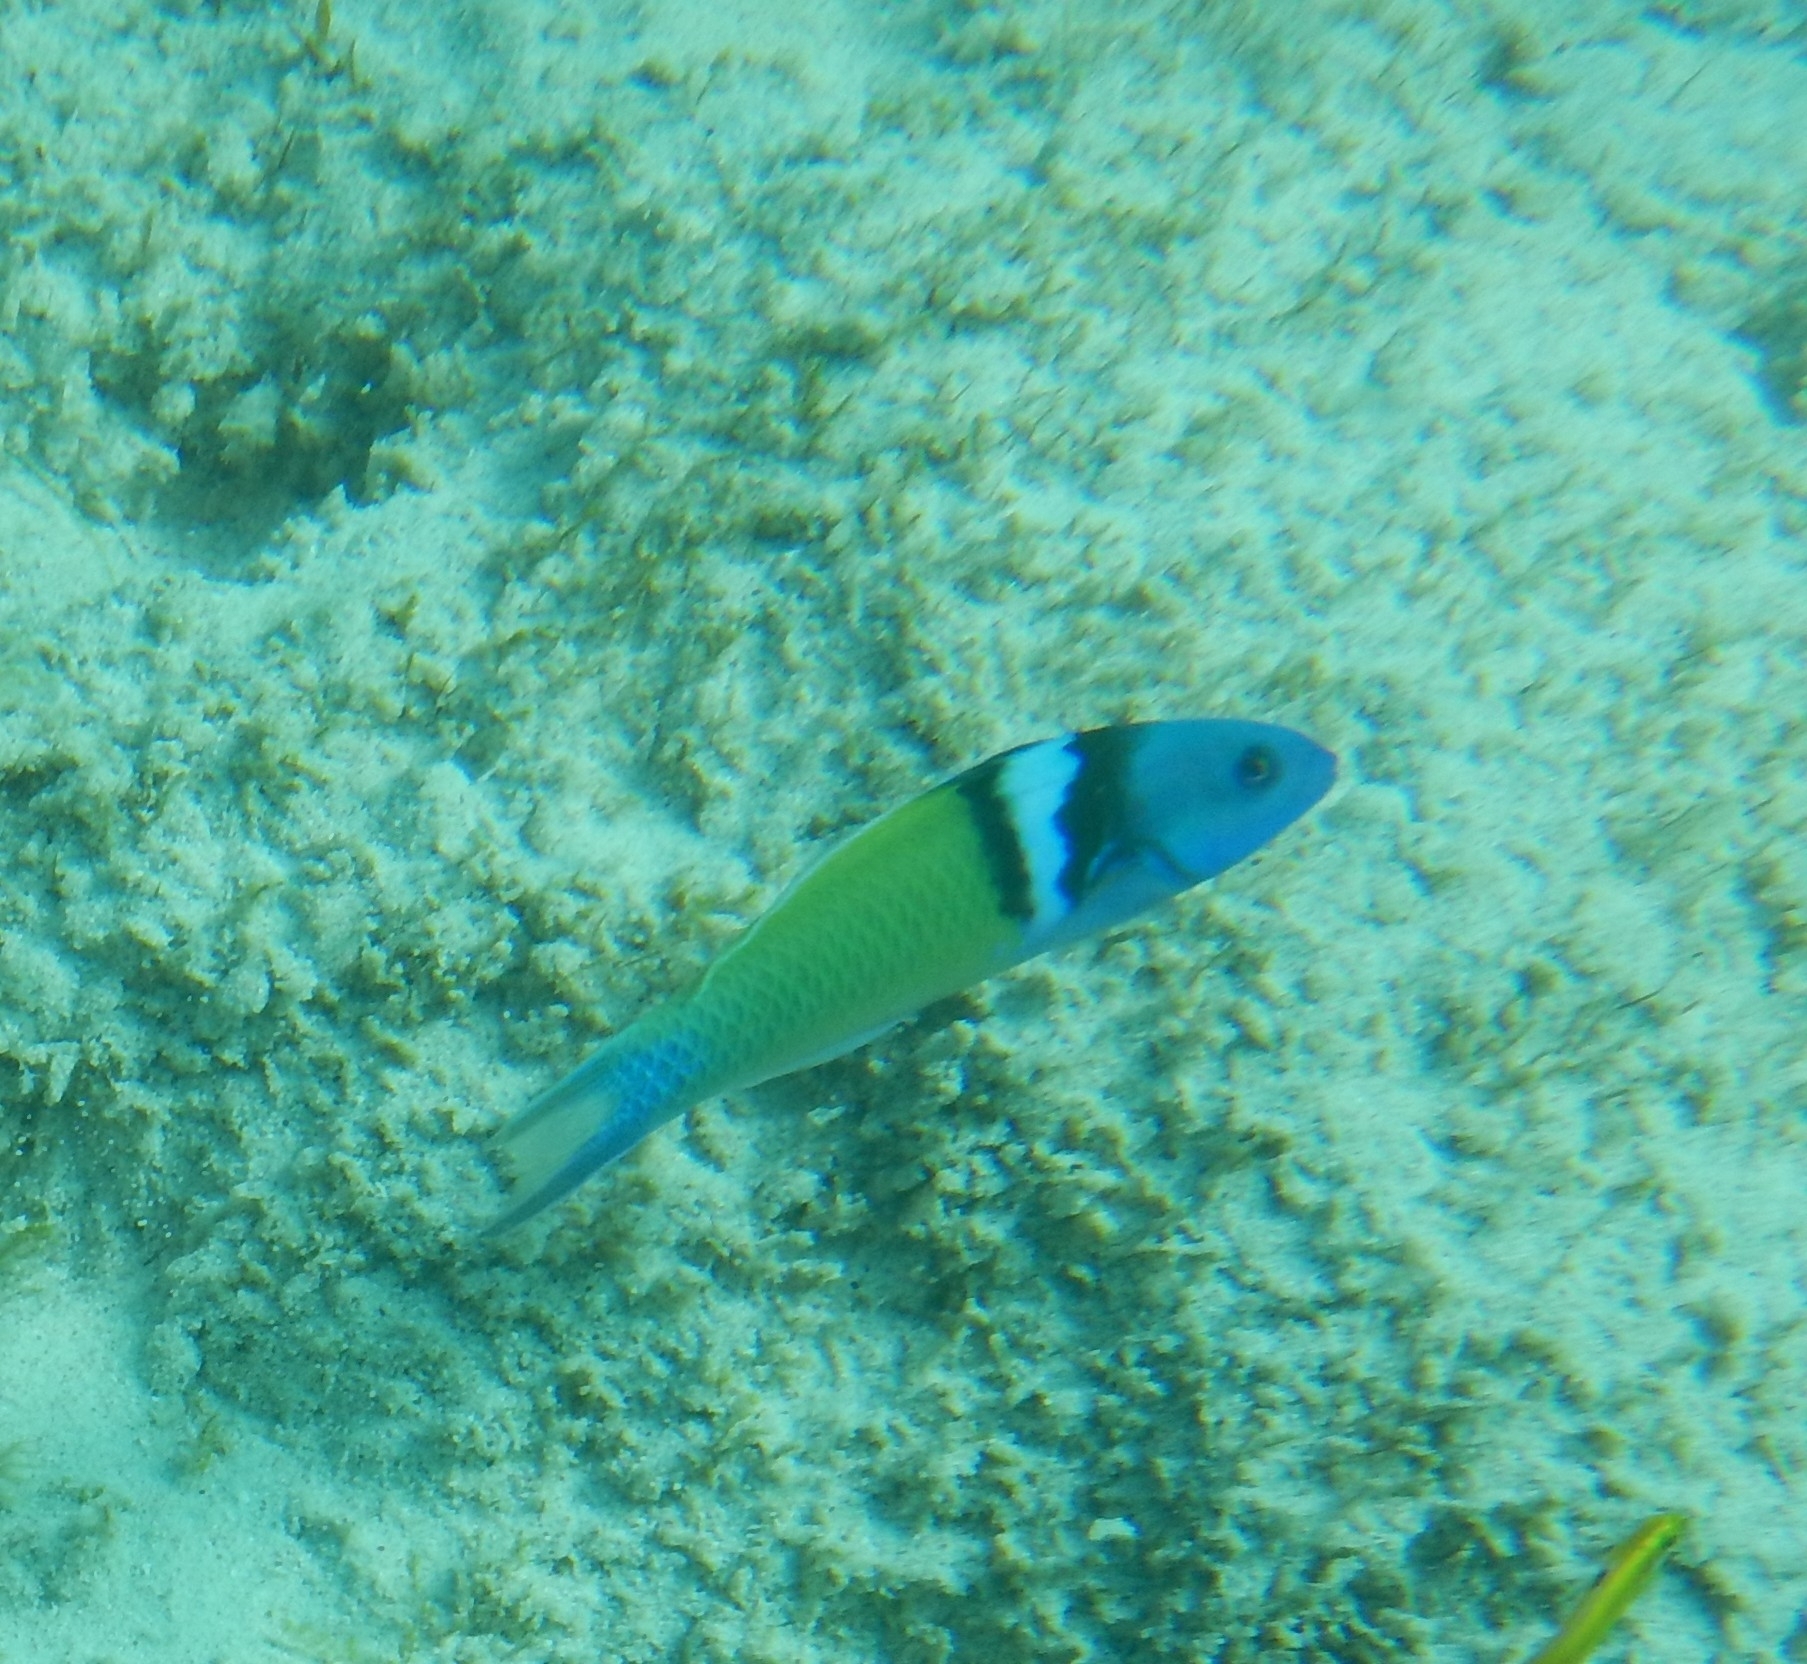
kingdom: Animalia
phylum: Chordata
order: Perciformes
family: Labridae
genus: Thalassoma
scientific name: Thalassoma bifasciatum
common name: Bluehead wrasse
